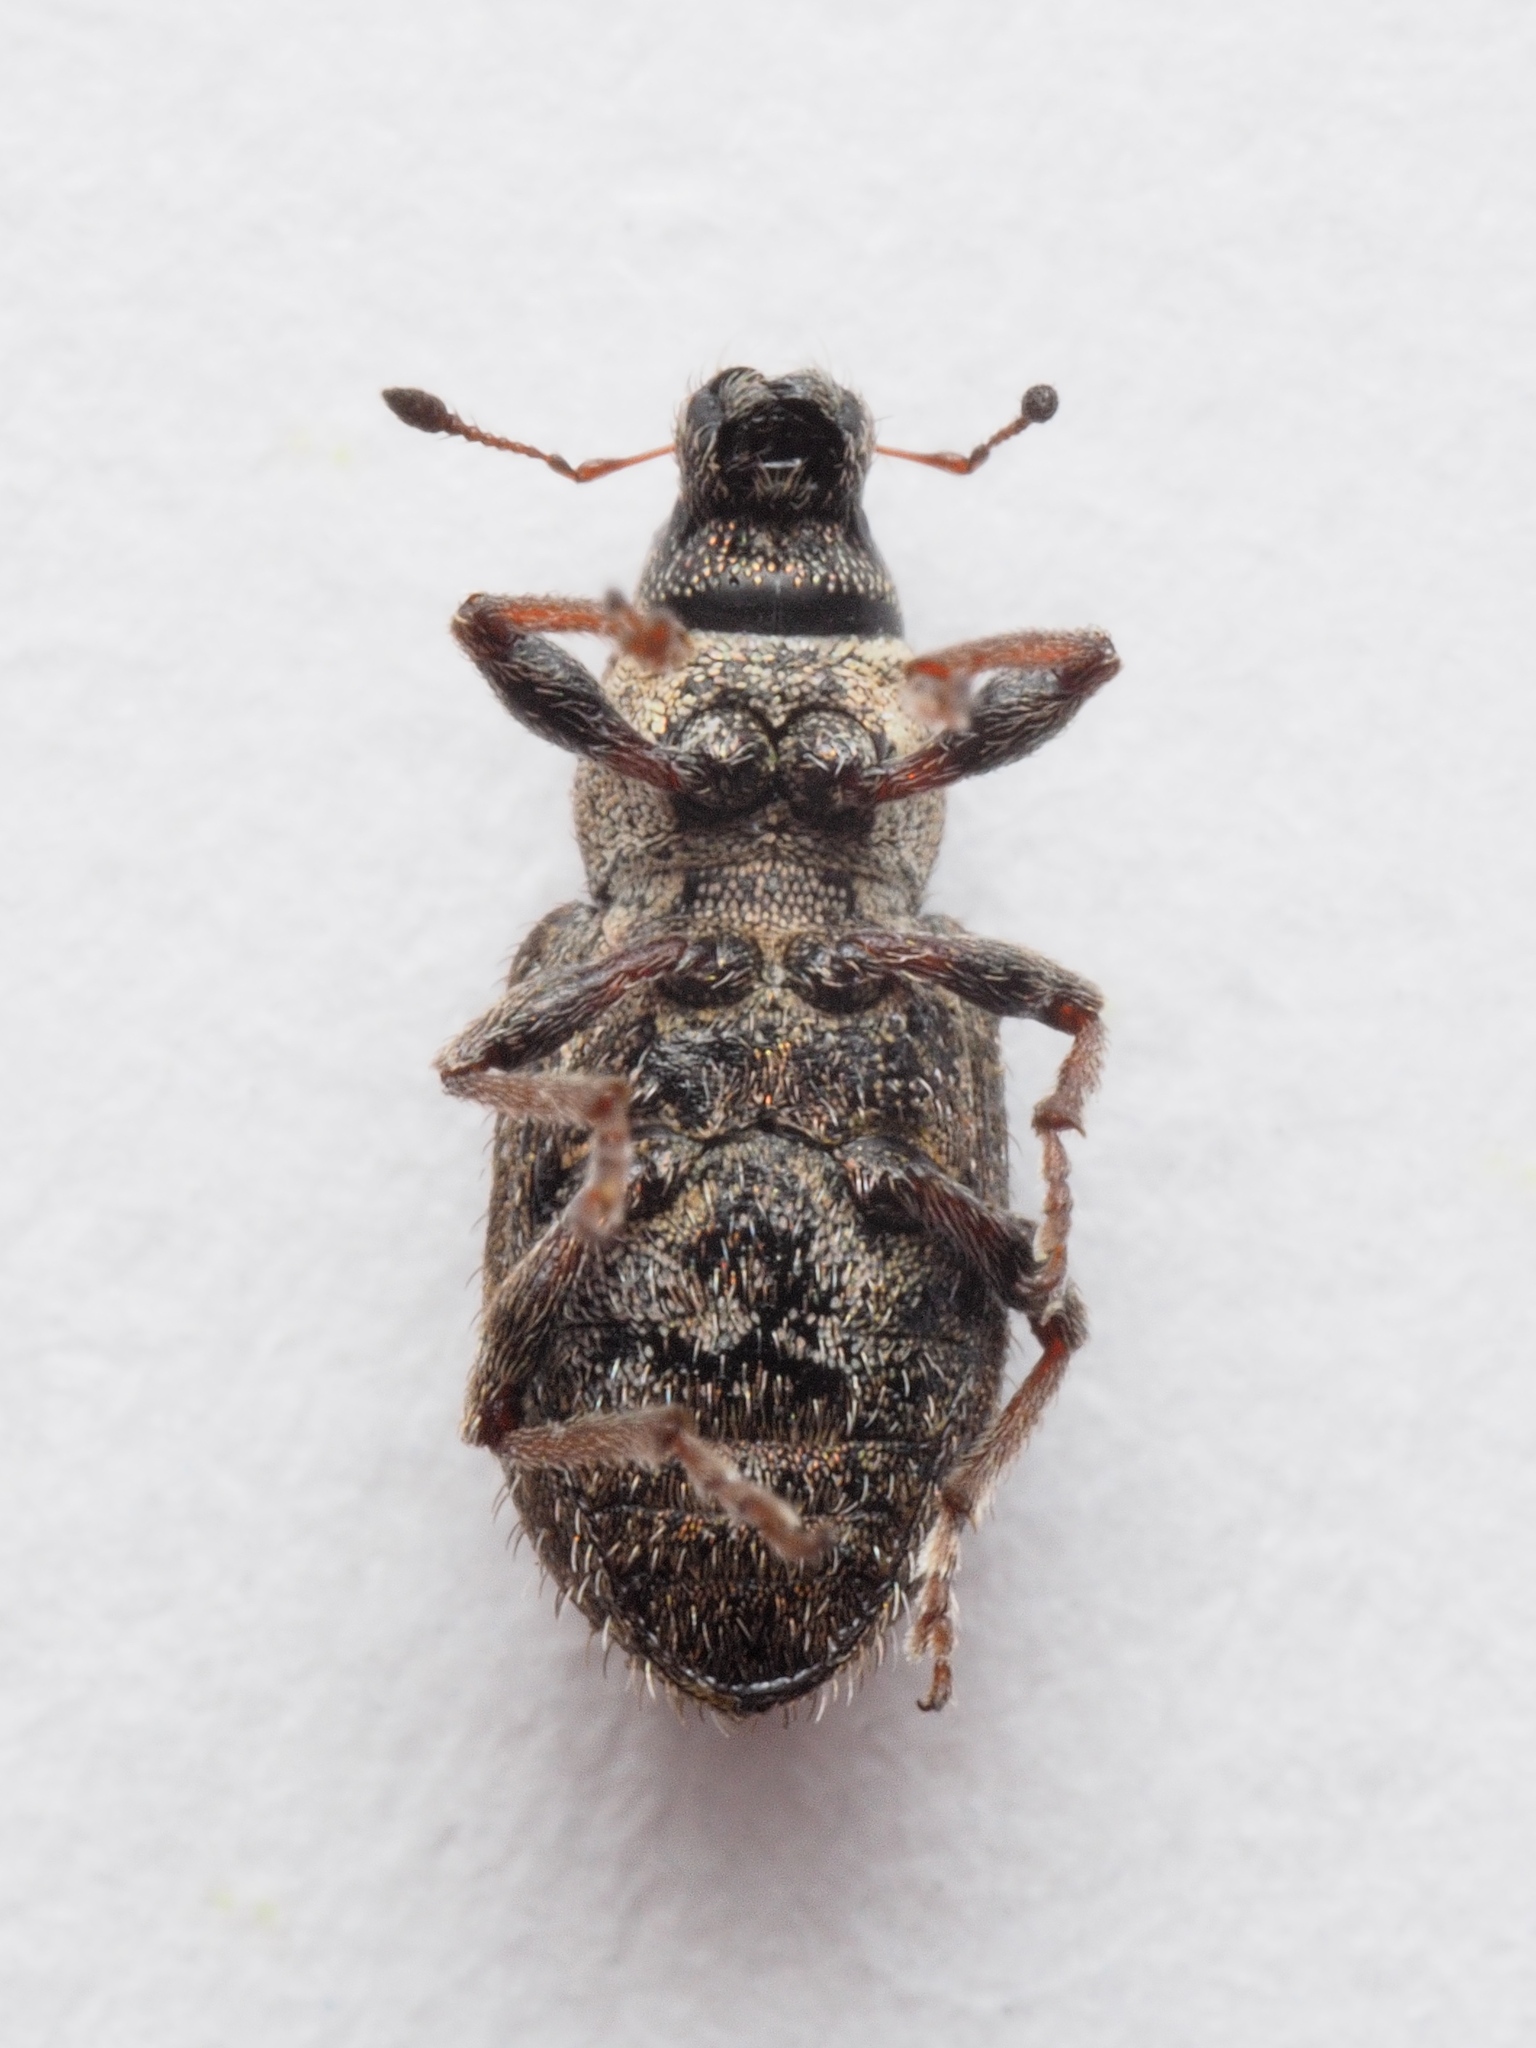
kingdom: Animalia
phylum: Arthropoda
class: Insecta
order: Coleoptera
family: Curculionidae
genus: Sitona
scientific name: Sitona hispidulus
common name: Clover weevil
